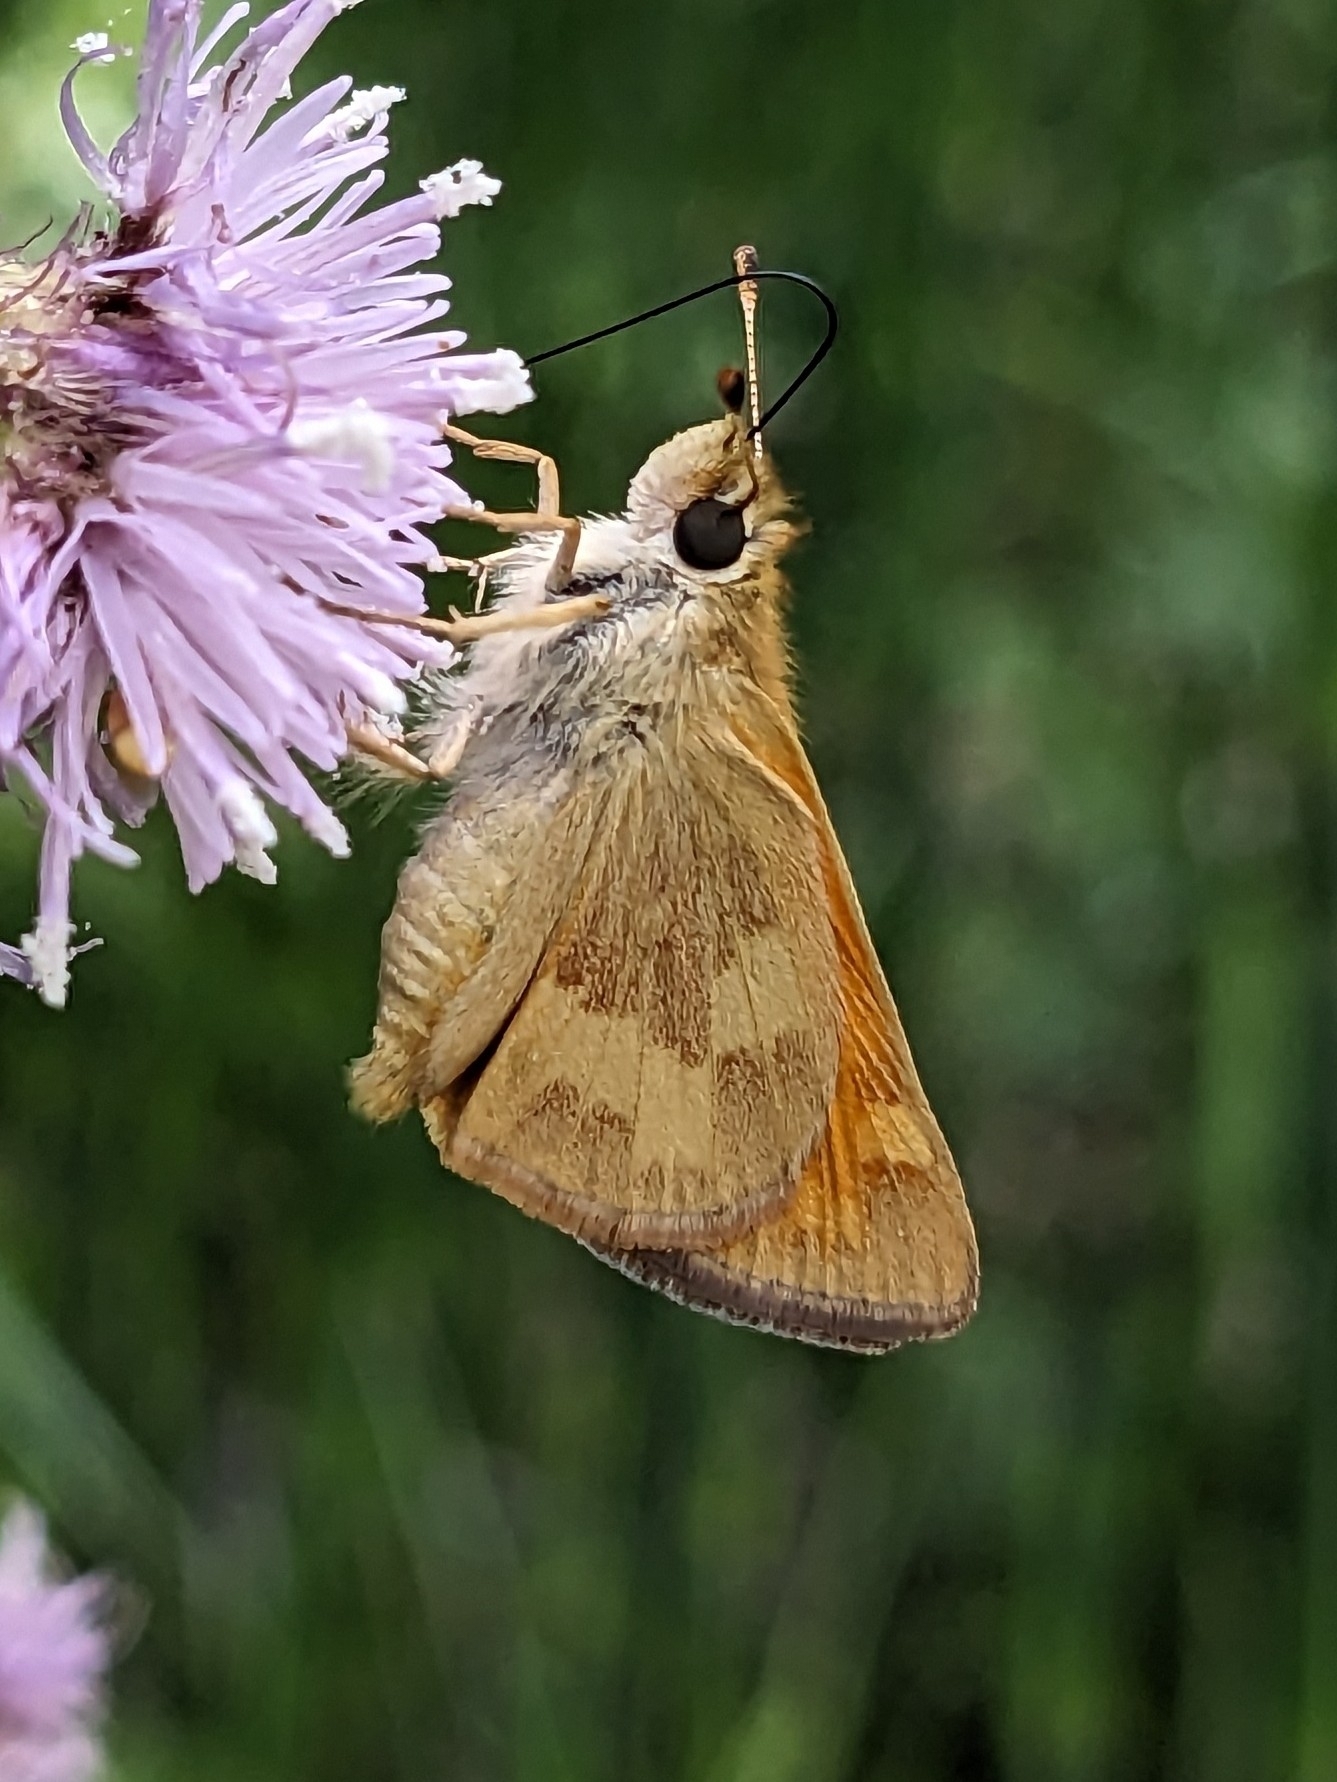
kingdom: Animalia
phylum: Arthropoda
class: Insecta
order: Lepidoptera
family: Hesperiidae
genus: Ochlodes
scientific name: Ochlodes sylvanoides
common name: Woodland skipper
